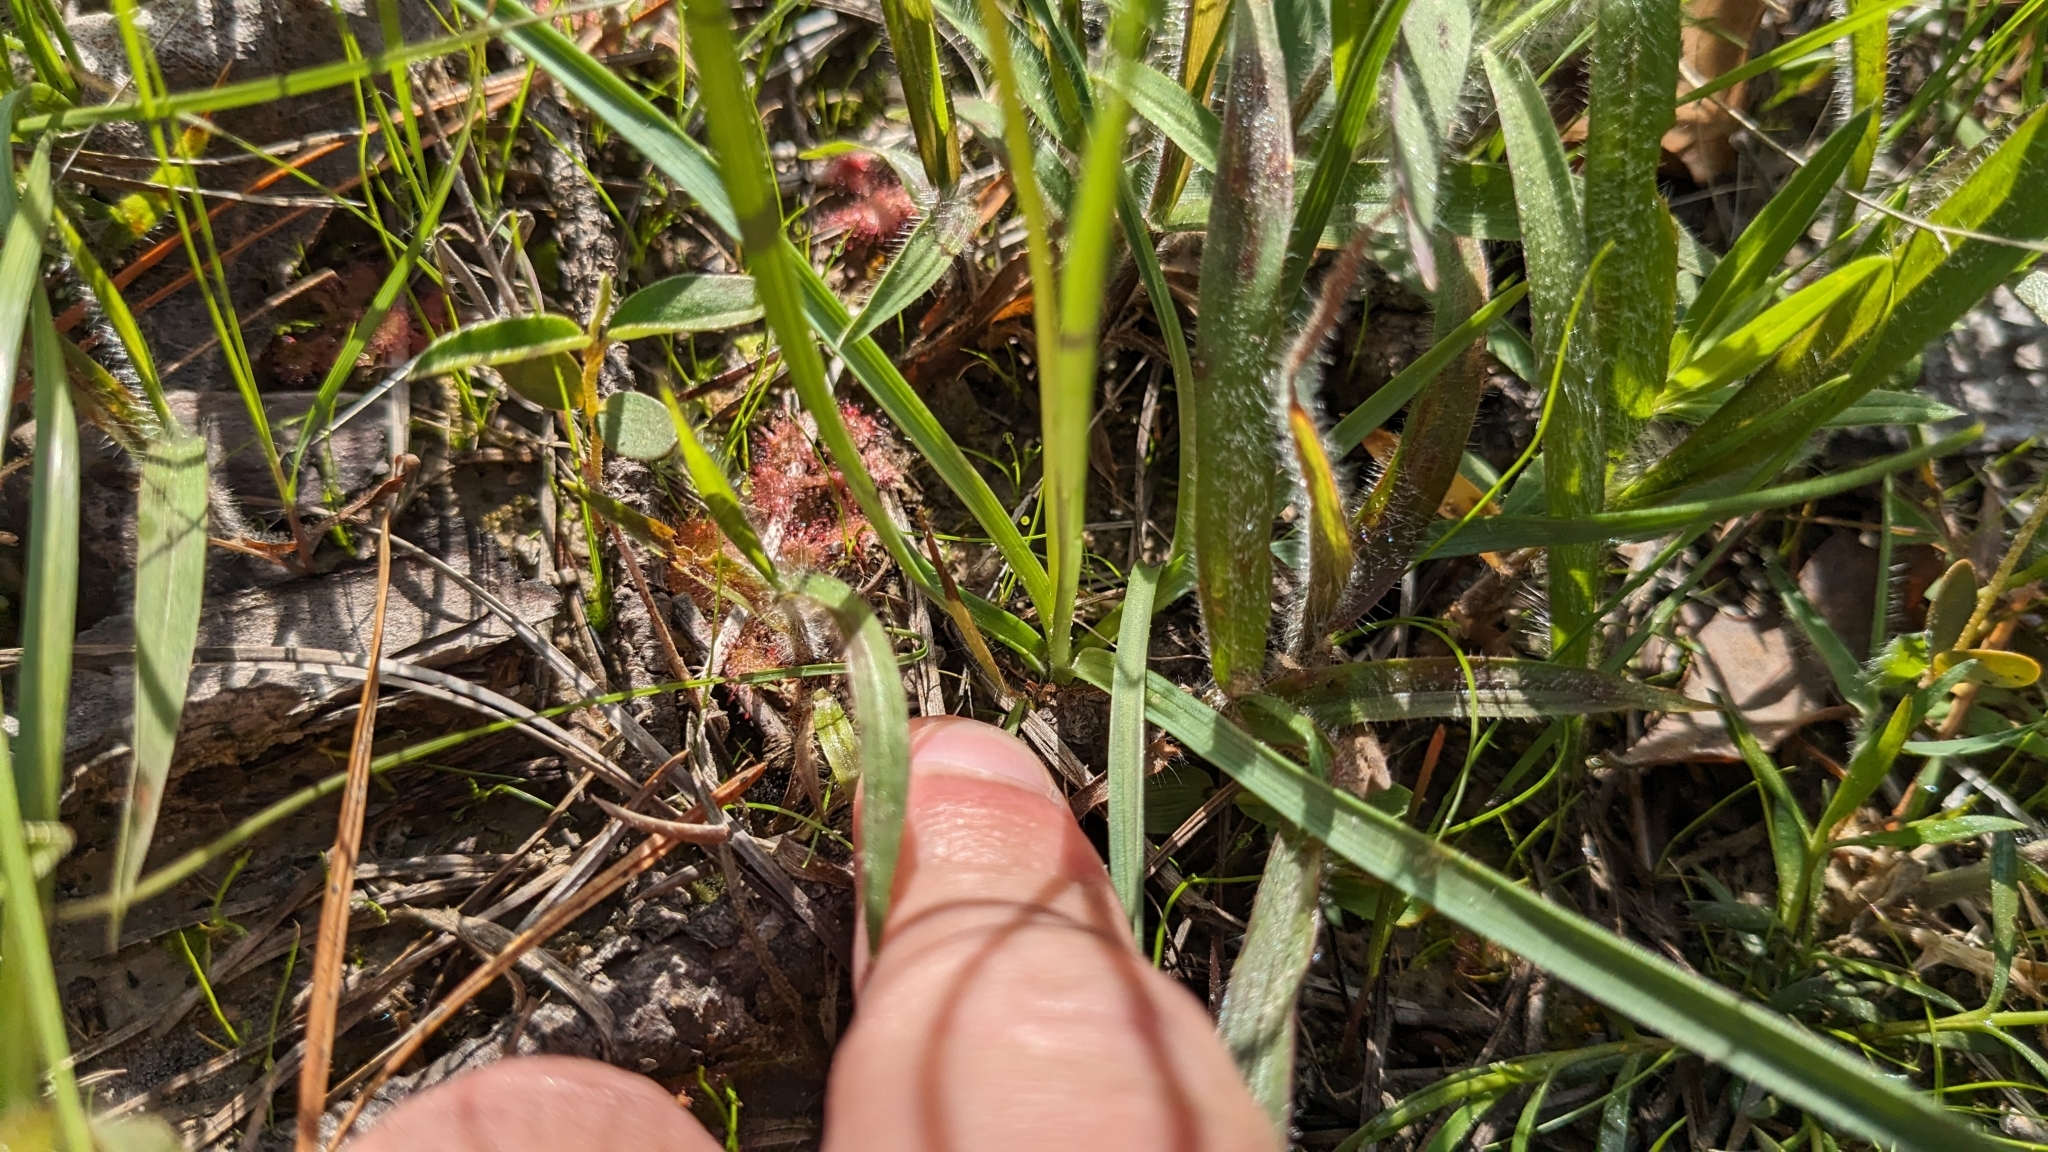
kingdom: Plantae
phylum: Tracheophyta
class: Liliopsida
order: Asparagales
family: Asparagaceae
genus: Schoenolirion
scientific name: Schoenolirion wrightii
